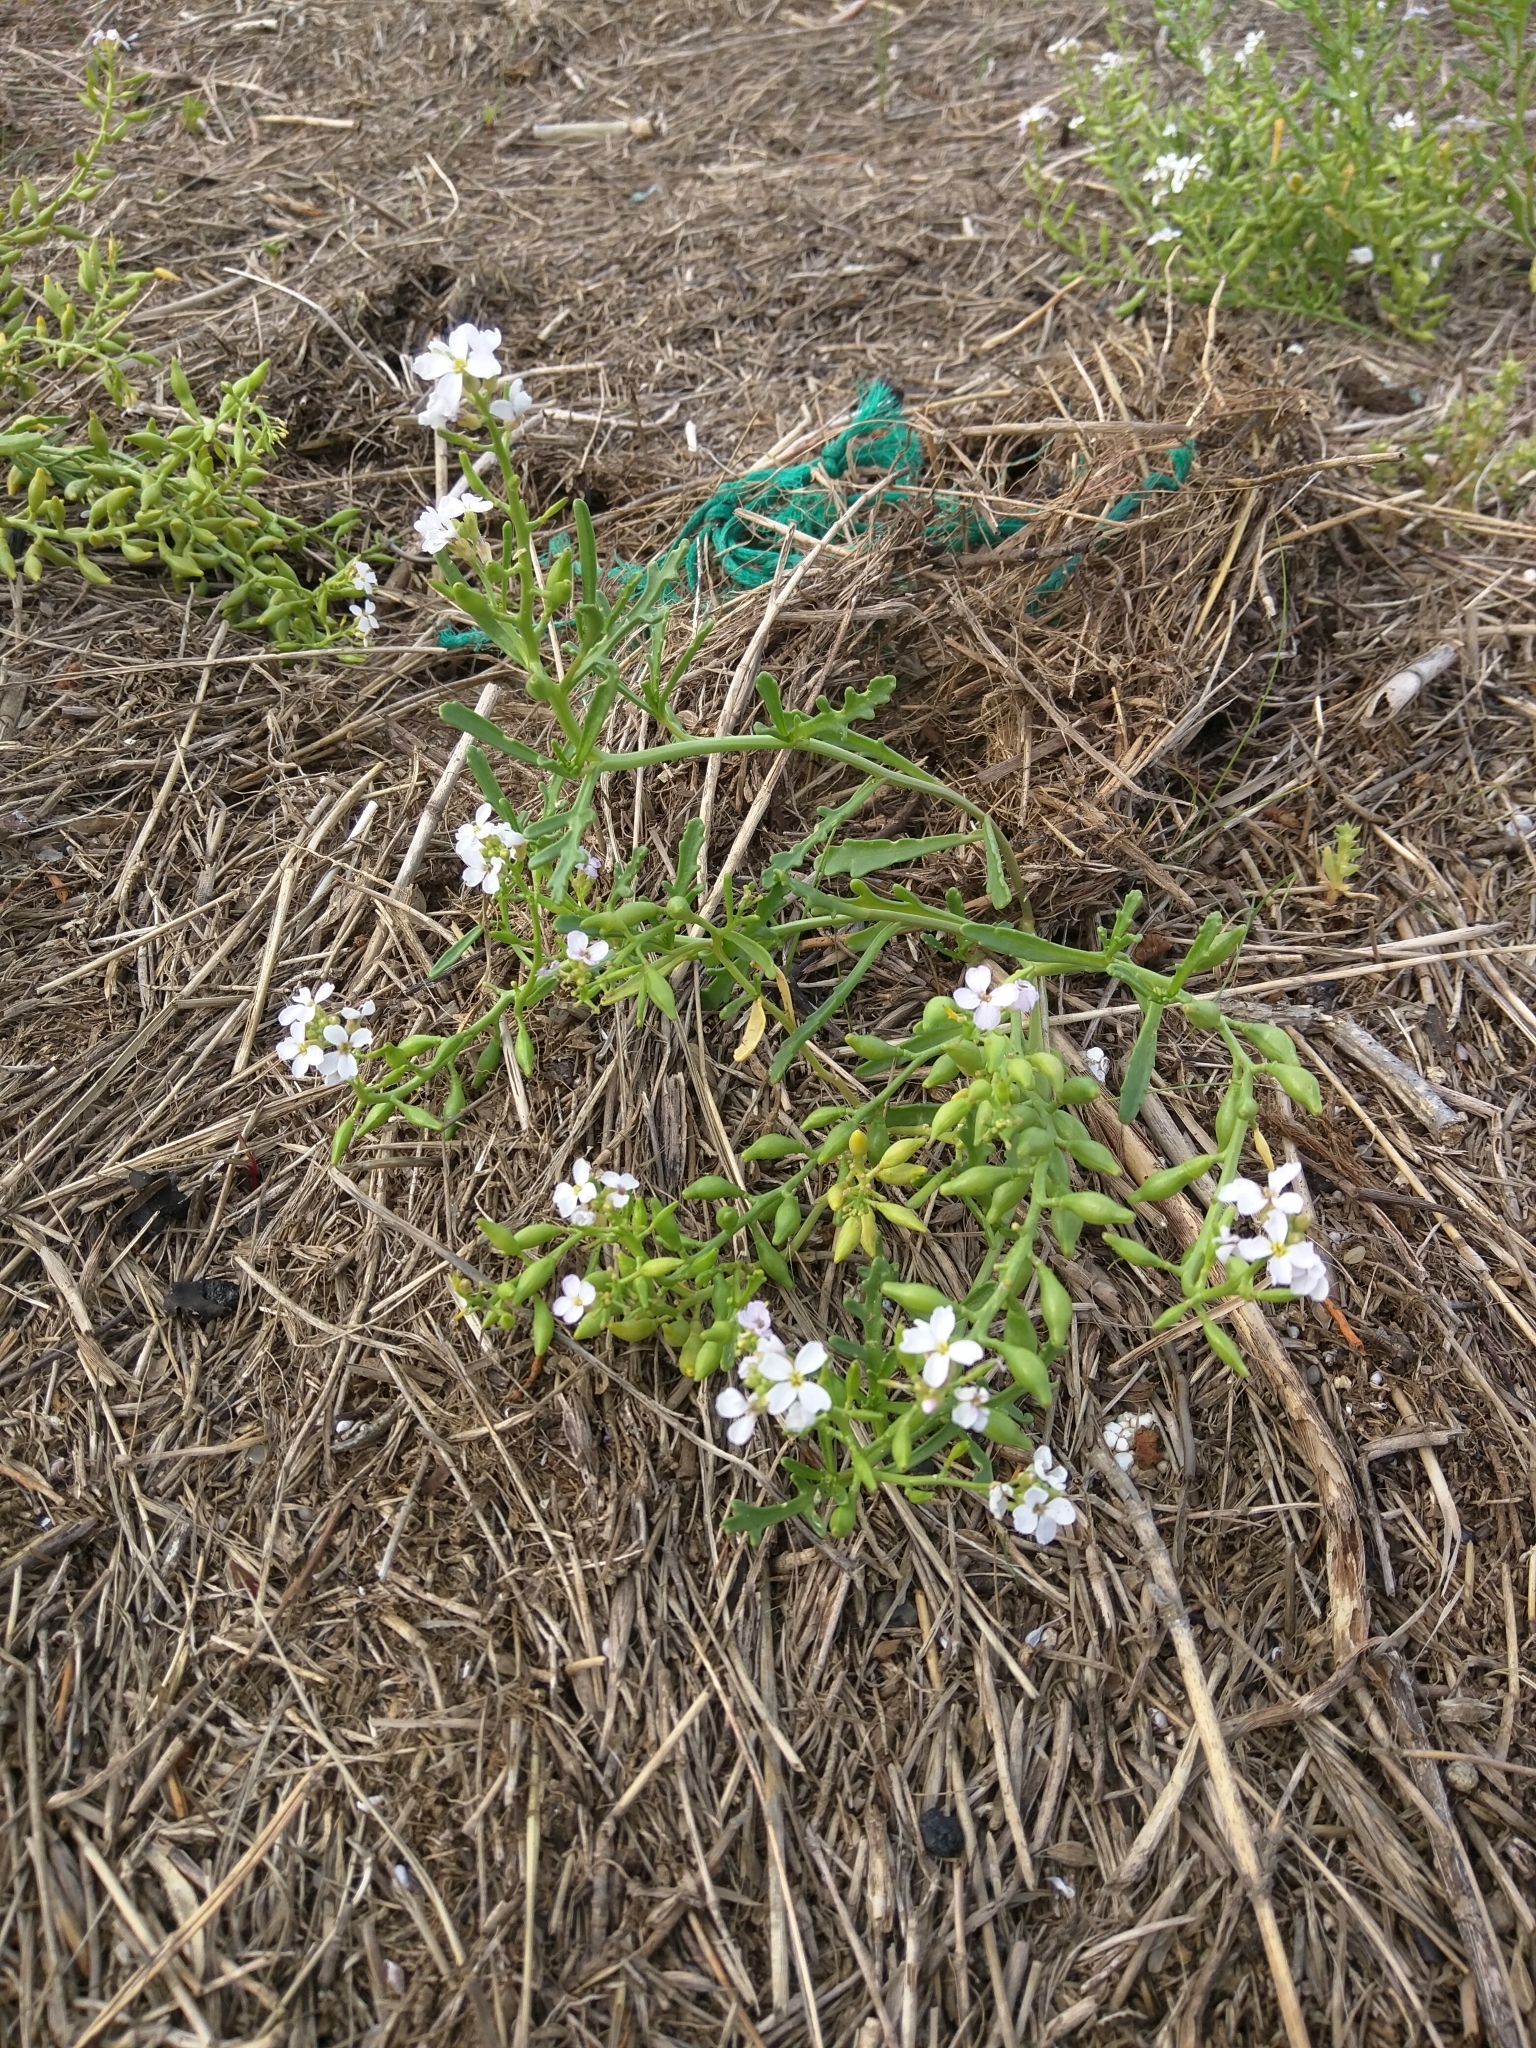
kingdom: Plantae
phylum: Tracheophyta
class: Magnoliopsida
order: Brassicales
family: Brassicaceae
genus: Cakile
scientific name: Cakile maritima
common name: Sea rocket
